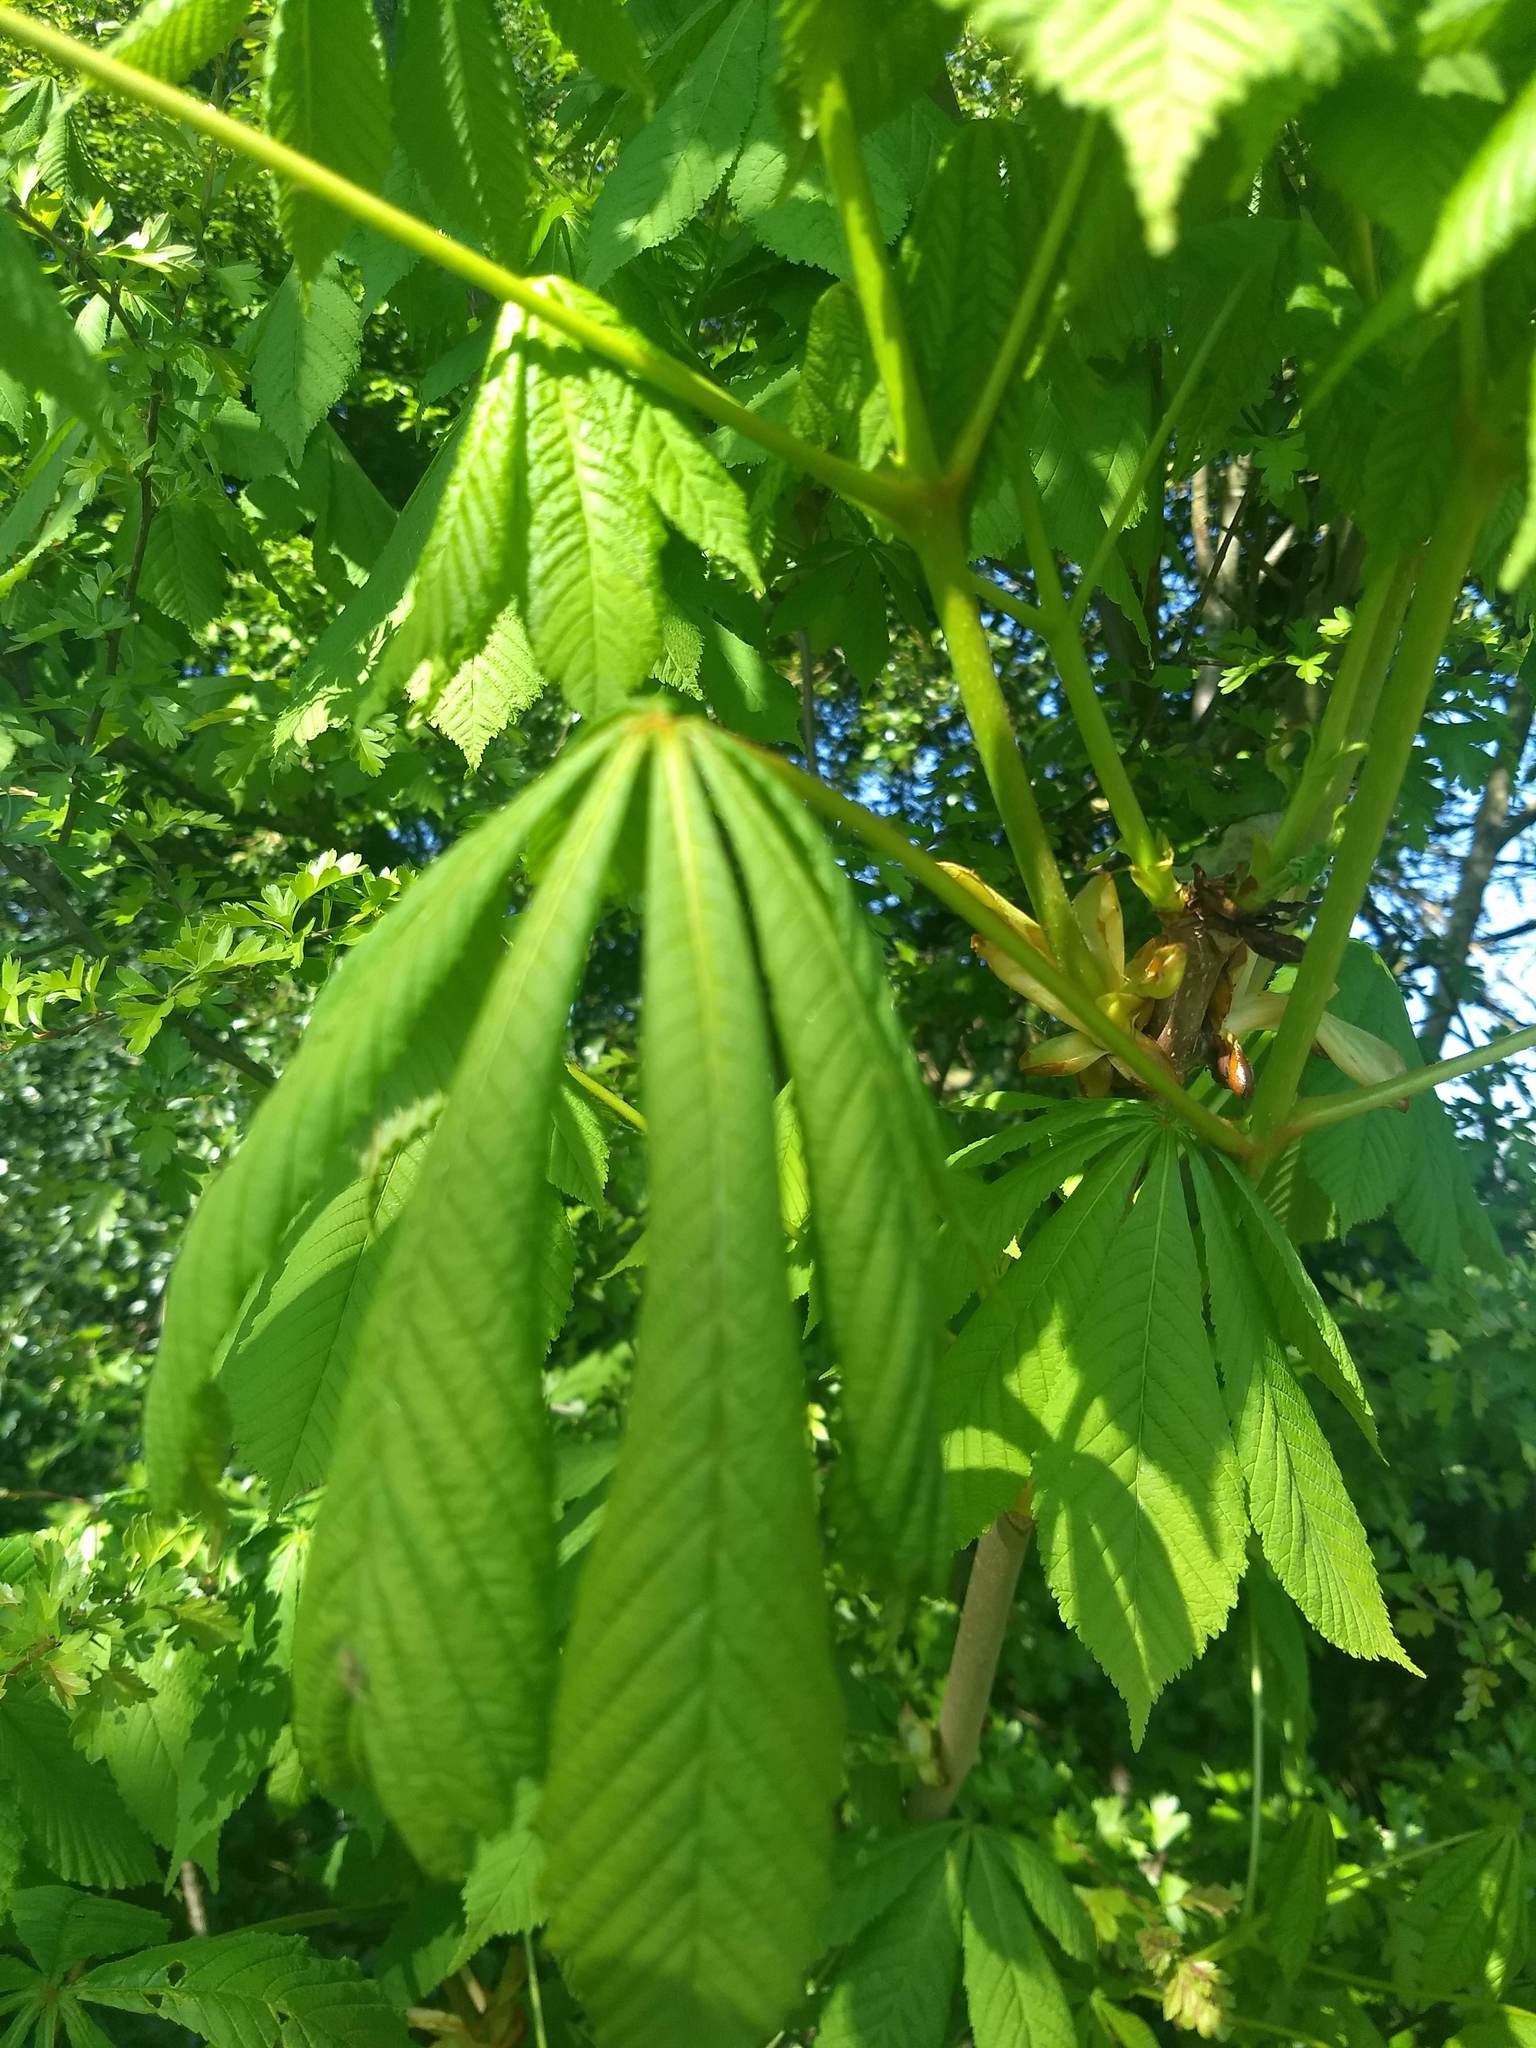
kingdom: Plantae
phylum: Tracheophyta
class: Magnoliopsida
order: Sapindales
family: Sapindaceae
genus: Aesculus
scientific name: Aesculus hippocastanum
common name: Horse-chestnut
